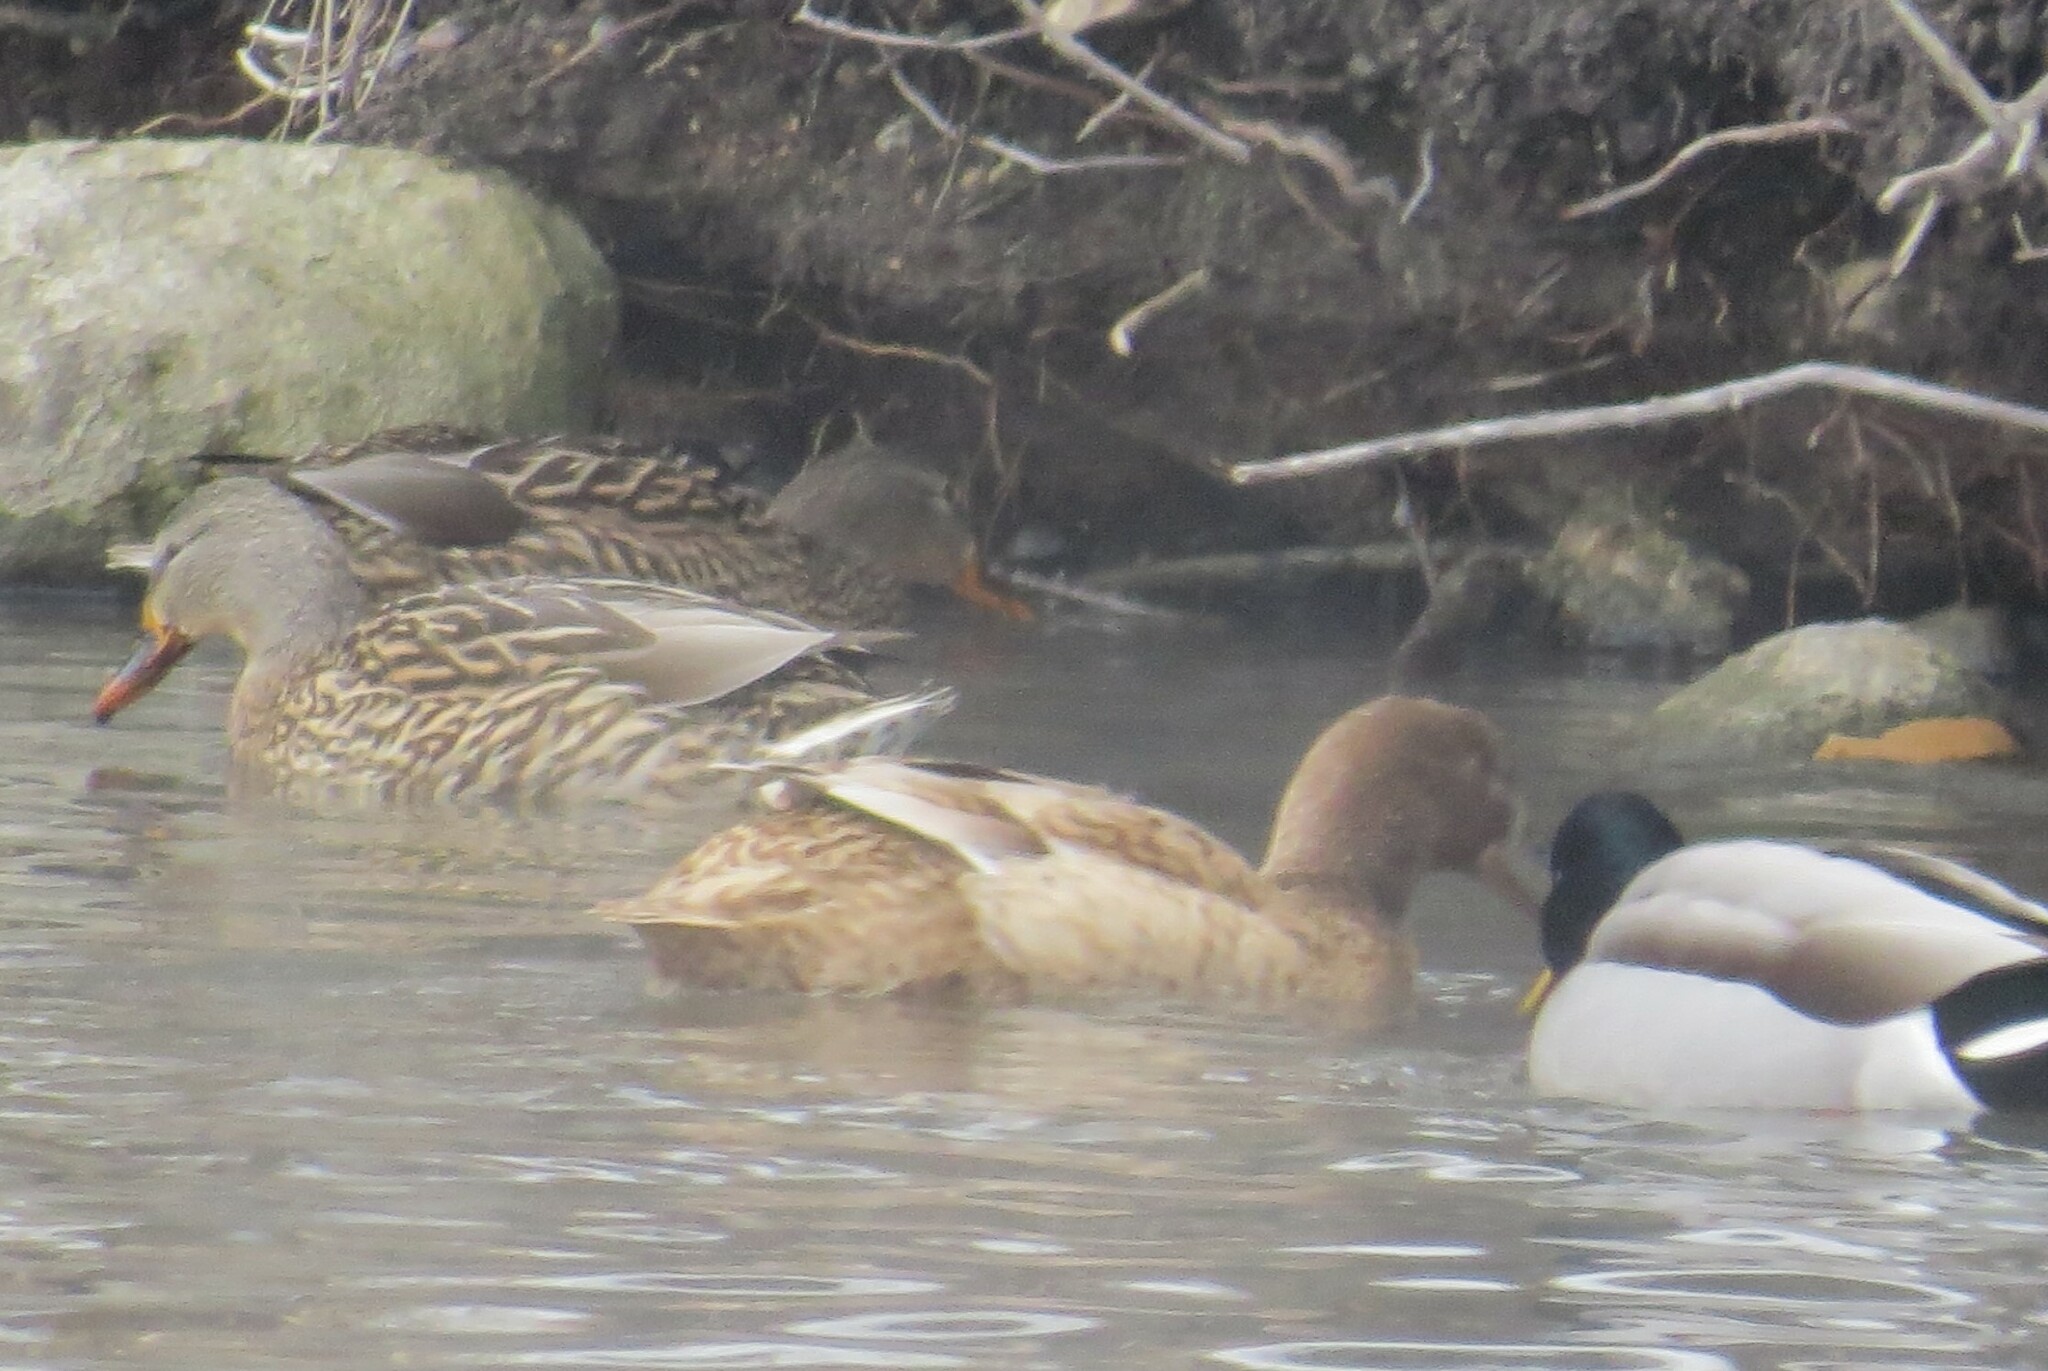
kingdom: Animalia
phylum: Chordata
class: Aves
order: Anseriformes
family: Anatidae
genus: Anas
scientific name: Anas platyrhynchos
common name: Mallard
